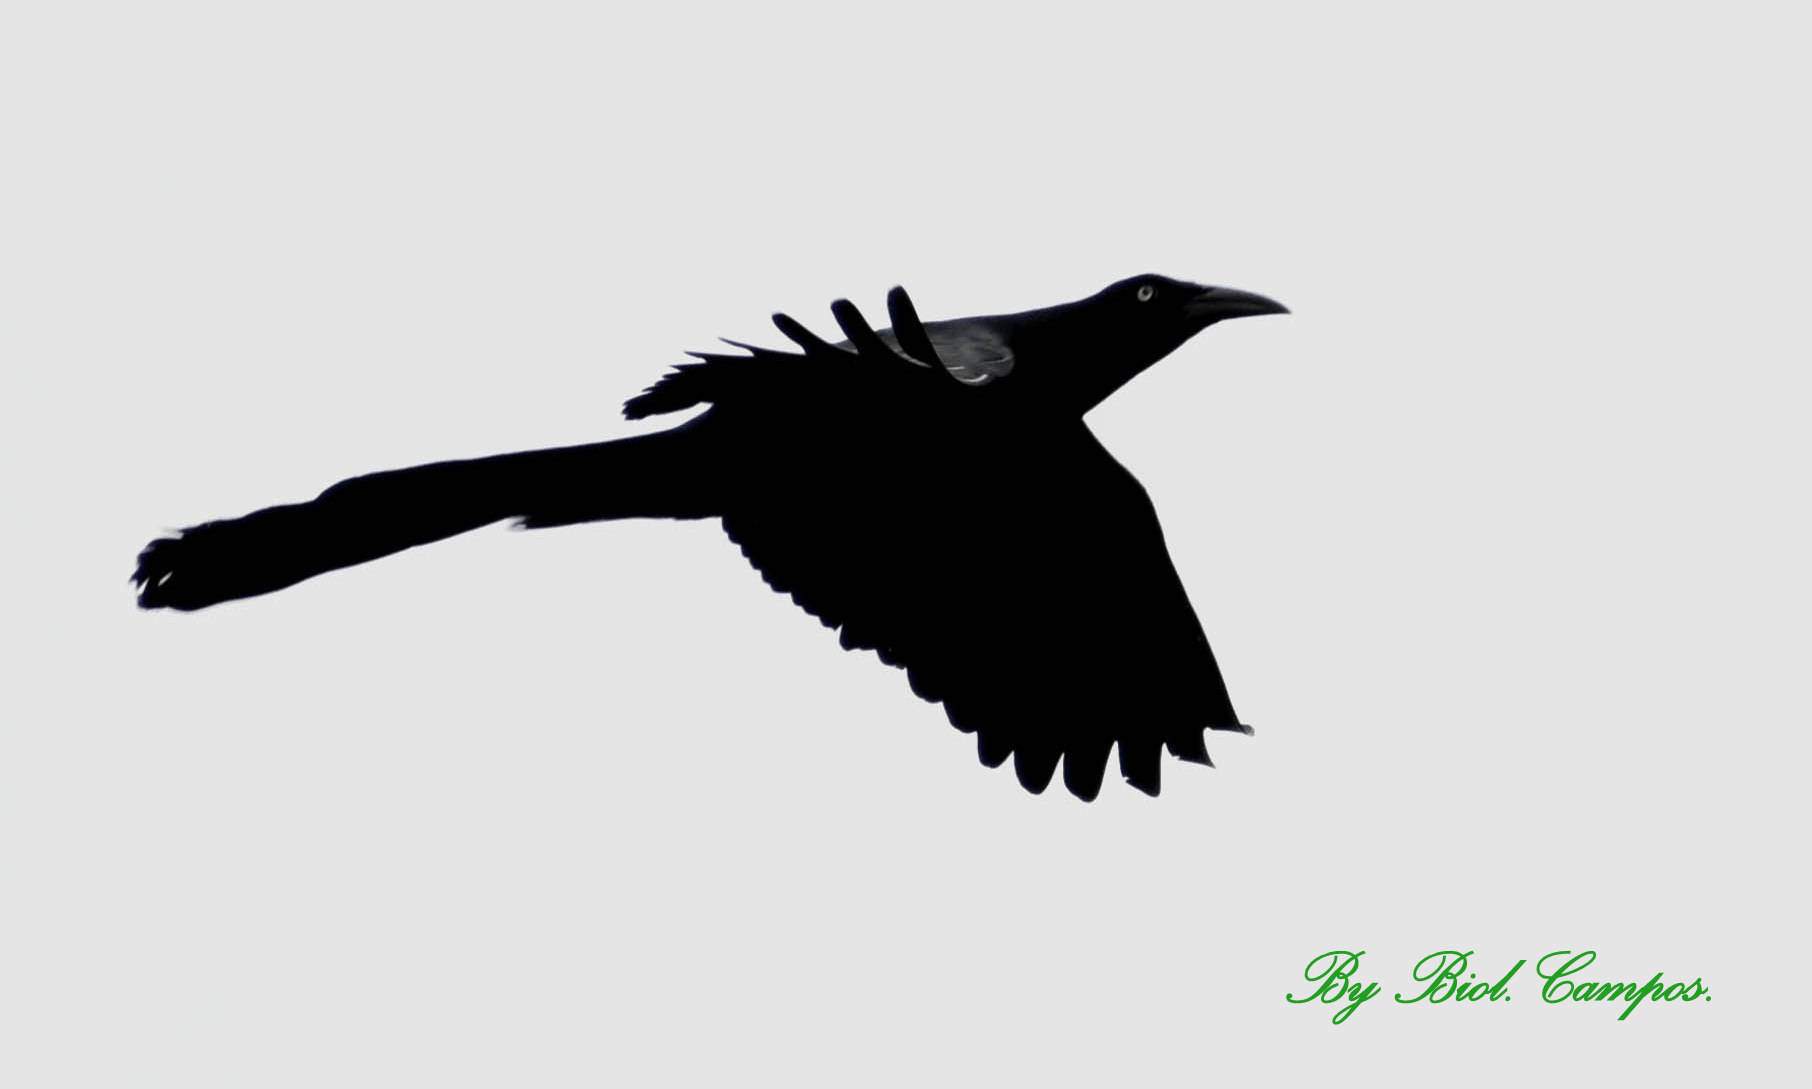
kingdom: Animalia
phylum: Chordata
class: Aves
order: Passeriformes
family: Icteridae
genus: Quiscalus
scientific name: Quiscalus mexicanus
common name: Great-tailed grackle
